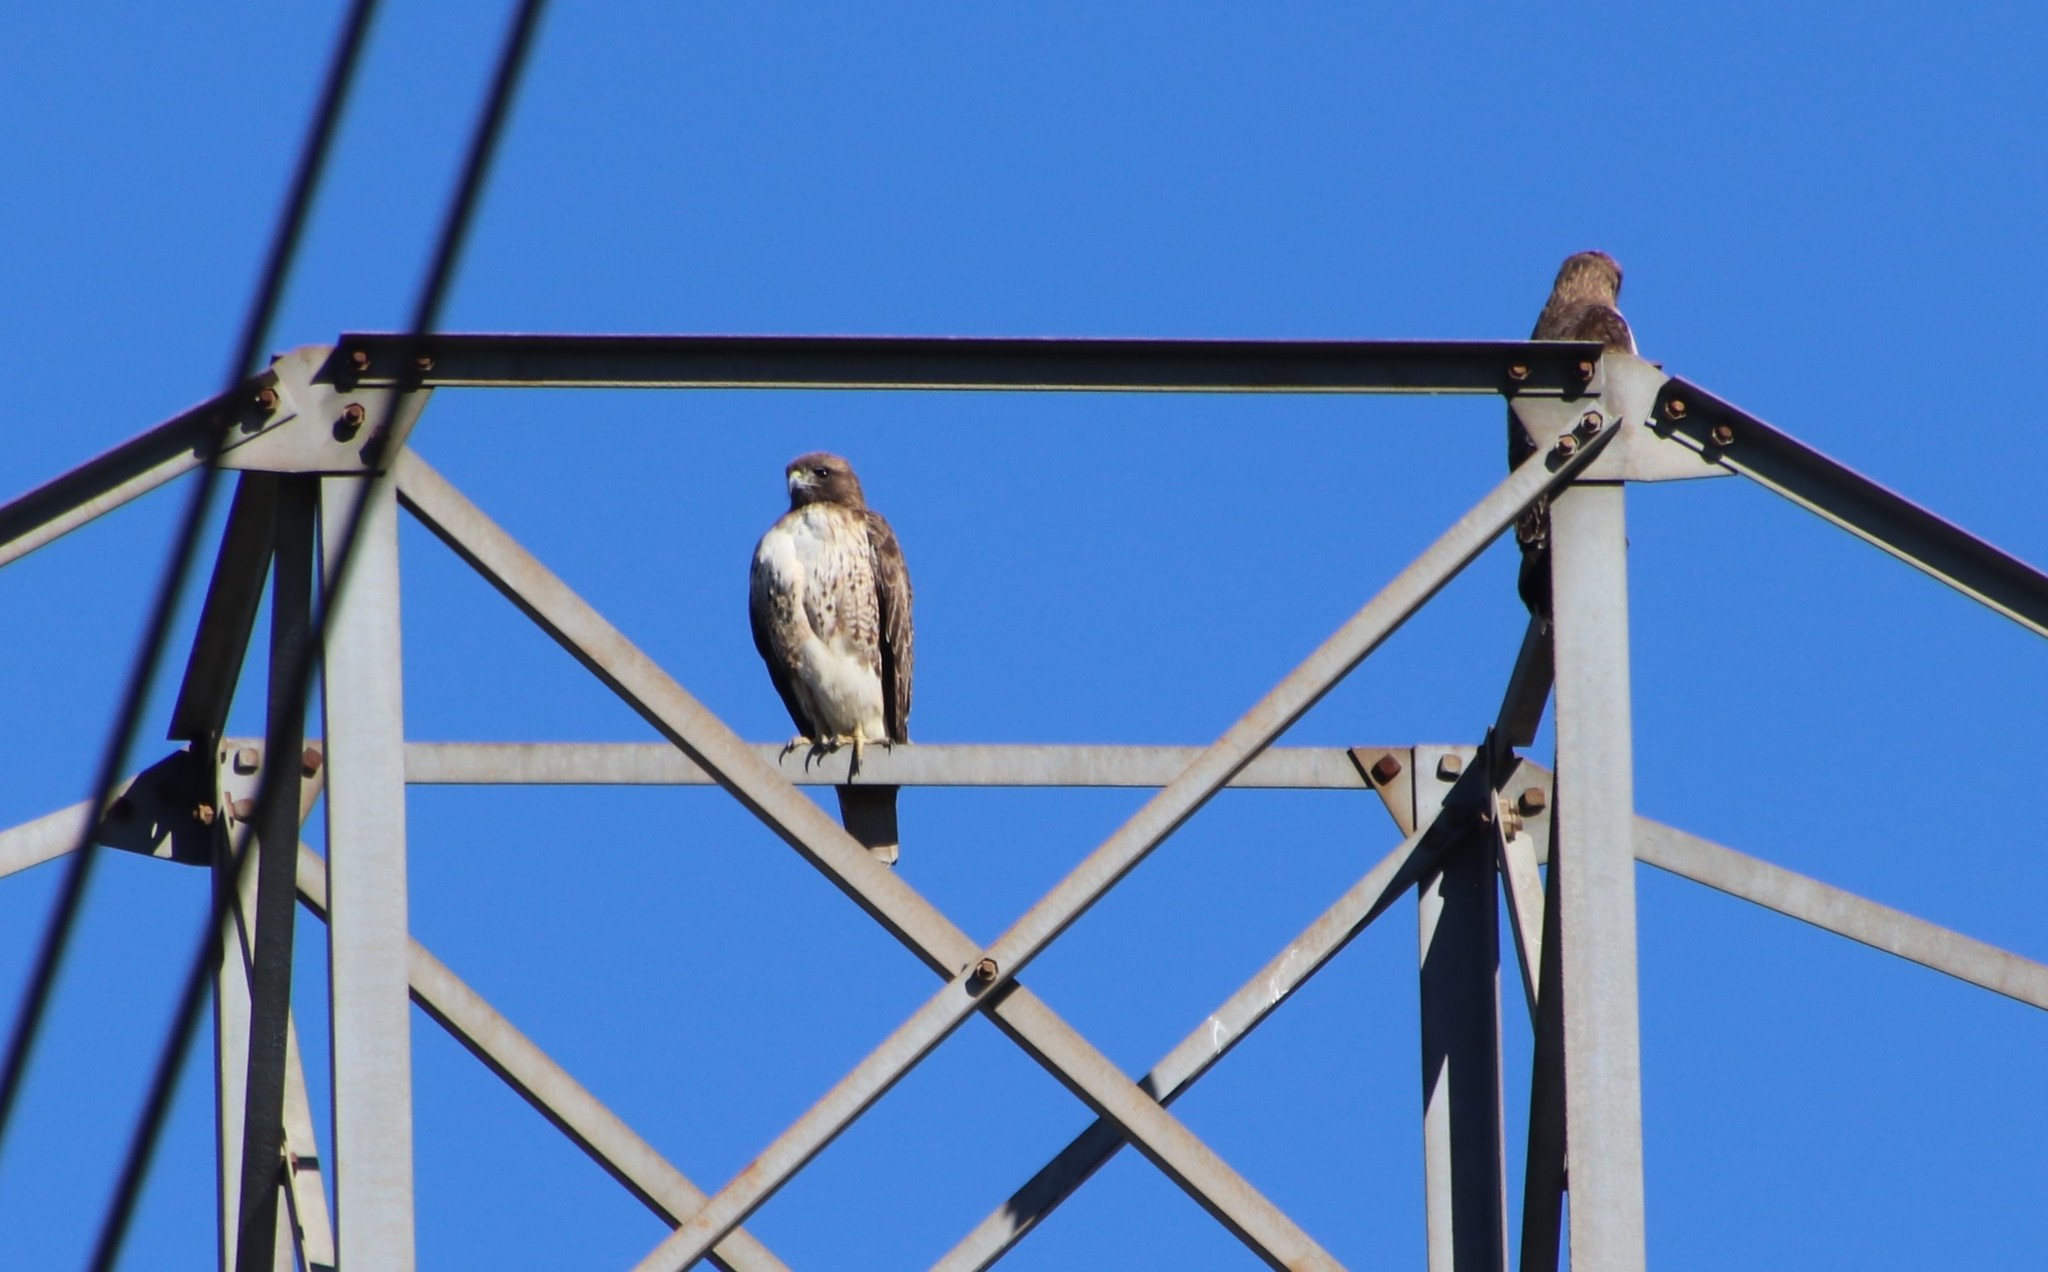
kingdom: Animalia
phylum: Chordata
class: Aves
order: Accipitriformes
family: Accipitridae
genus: Buteo
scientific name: Buteo jamaicensis
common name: Red-tailed hawk
